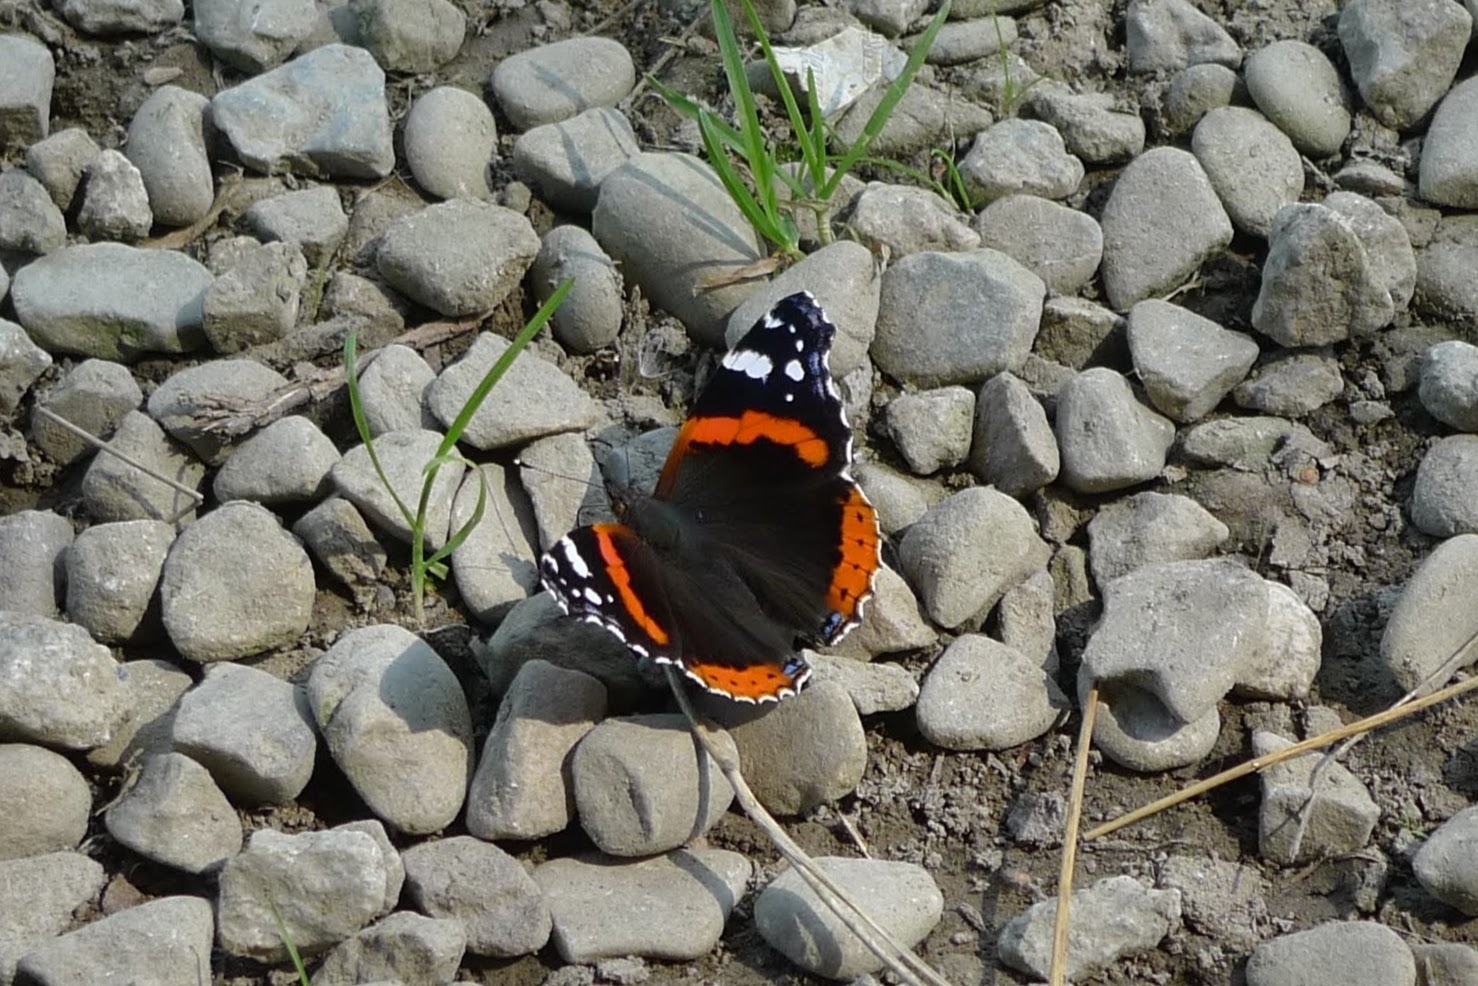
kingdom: Animalia
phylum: Arthropoda
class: Insecta
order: Lepidoptera
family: Nymphalidae
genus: Vanessa
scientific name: Vanessa atalanta
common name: Red admiral
